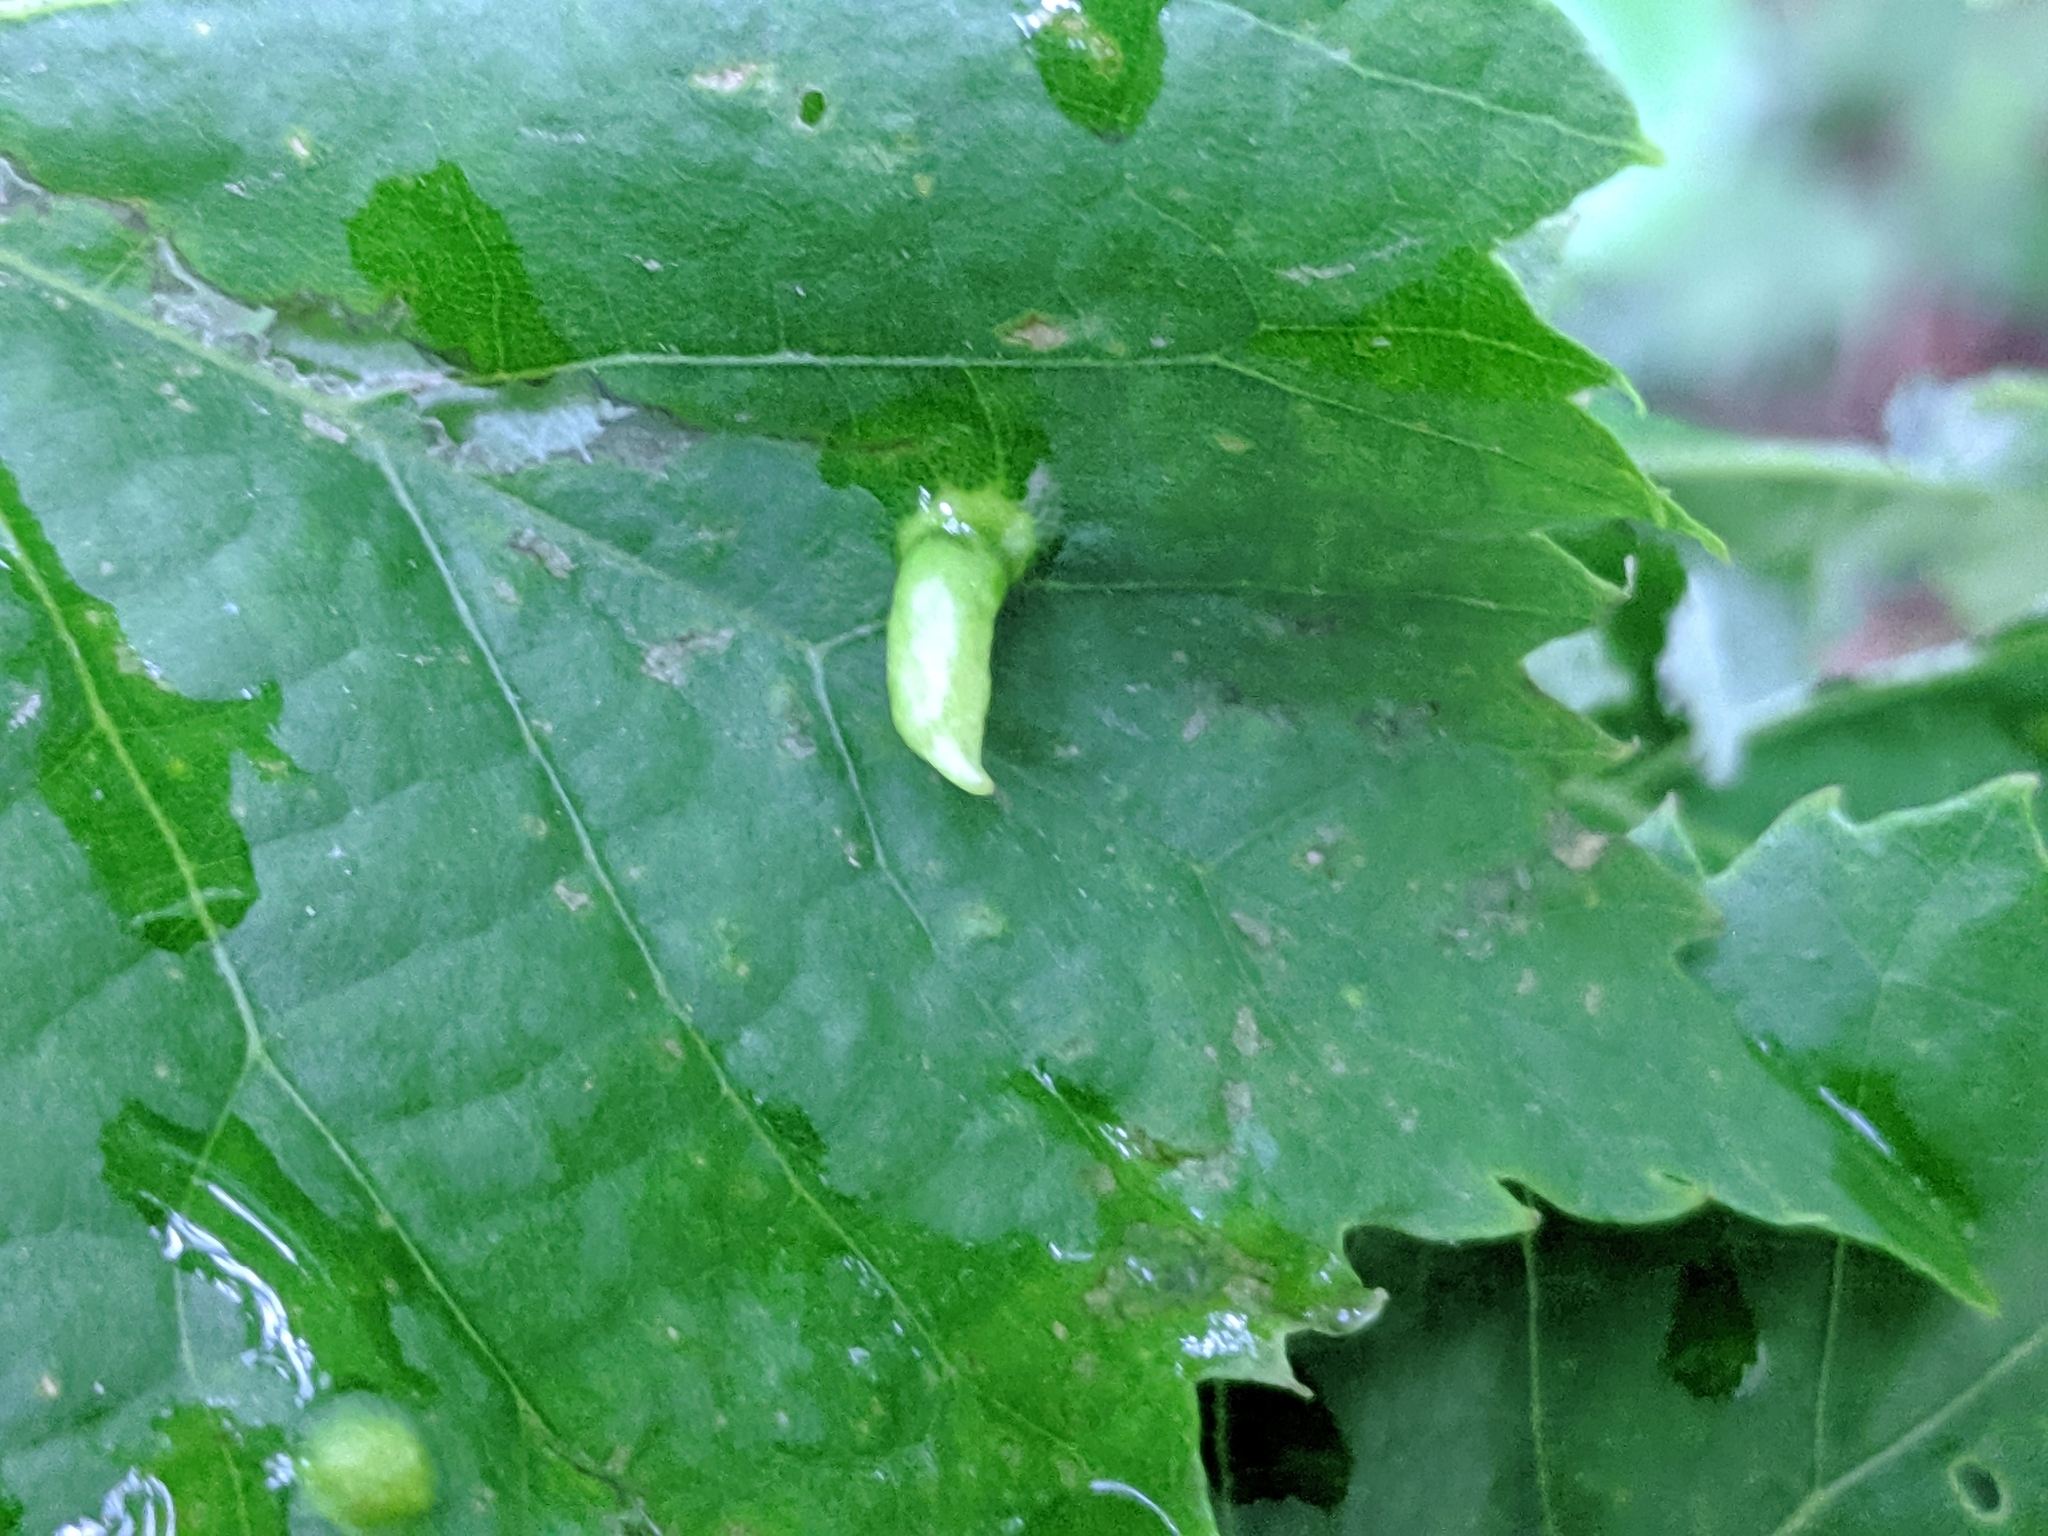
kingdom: Animalia
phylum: Arthropoda
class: Arachnida
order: Trombidiformes
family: Eriophyidae
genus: Eriophyes
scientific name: Eriophyes tiliae
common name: Red nail gall mite
